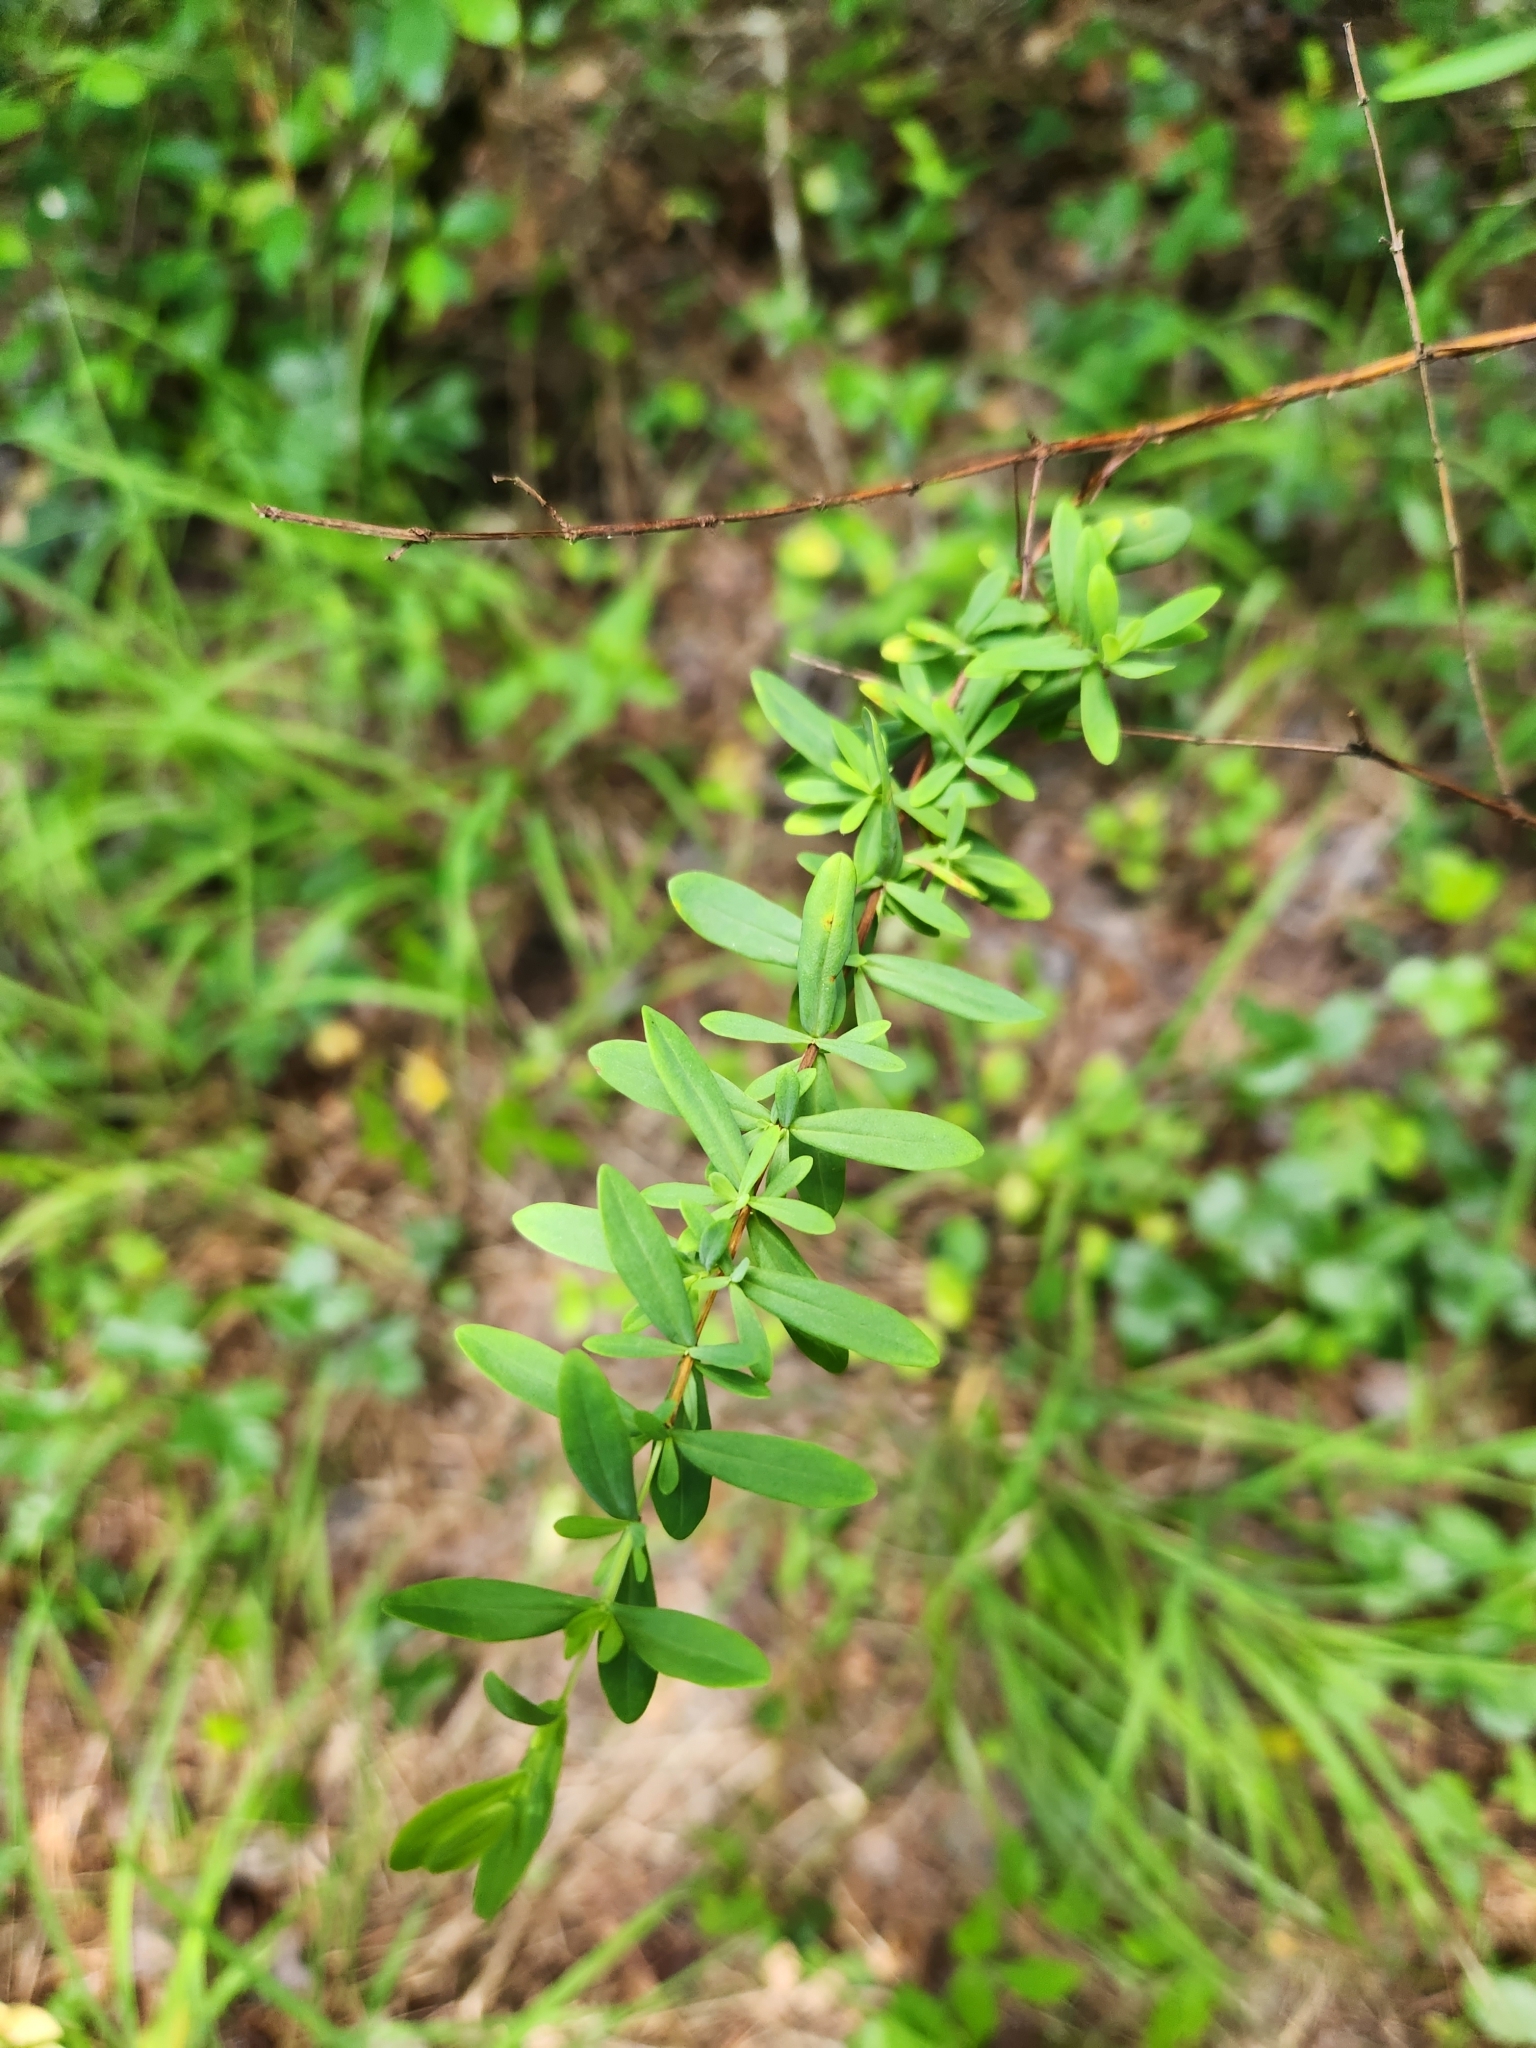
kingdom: Plantae
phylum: Tracheophyta
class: Magnoliopsida
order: Malpighiales
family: Hypericaceae
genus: Hypericum
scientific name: Hypericum hypericoides
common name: St. andrew's cross
